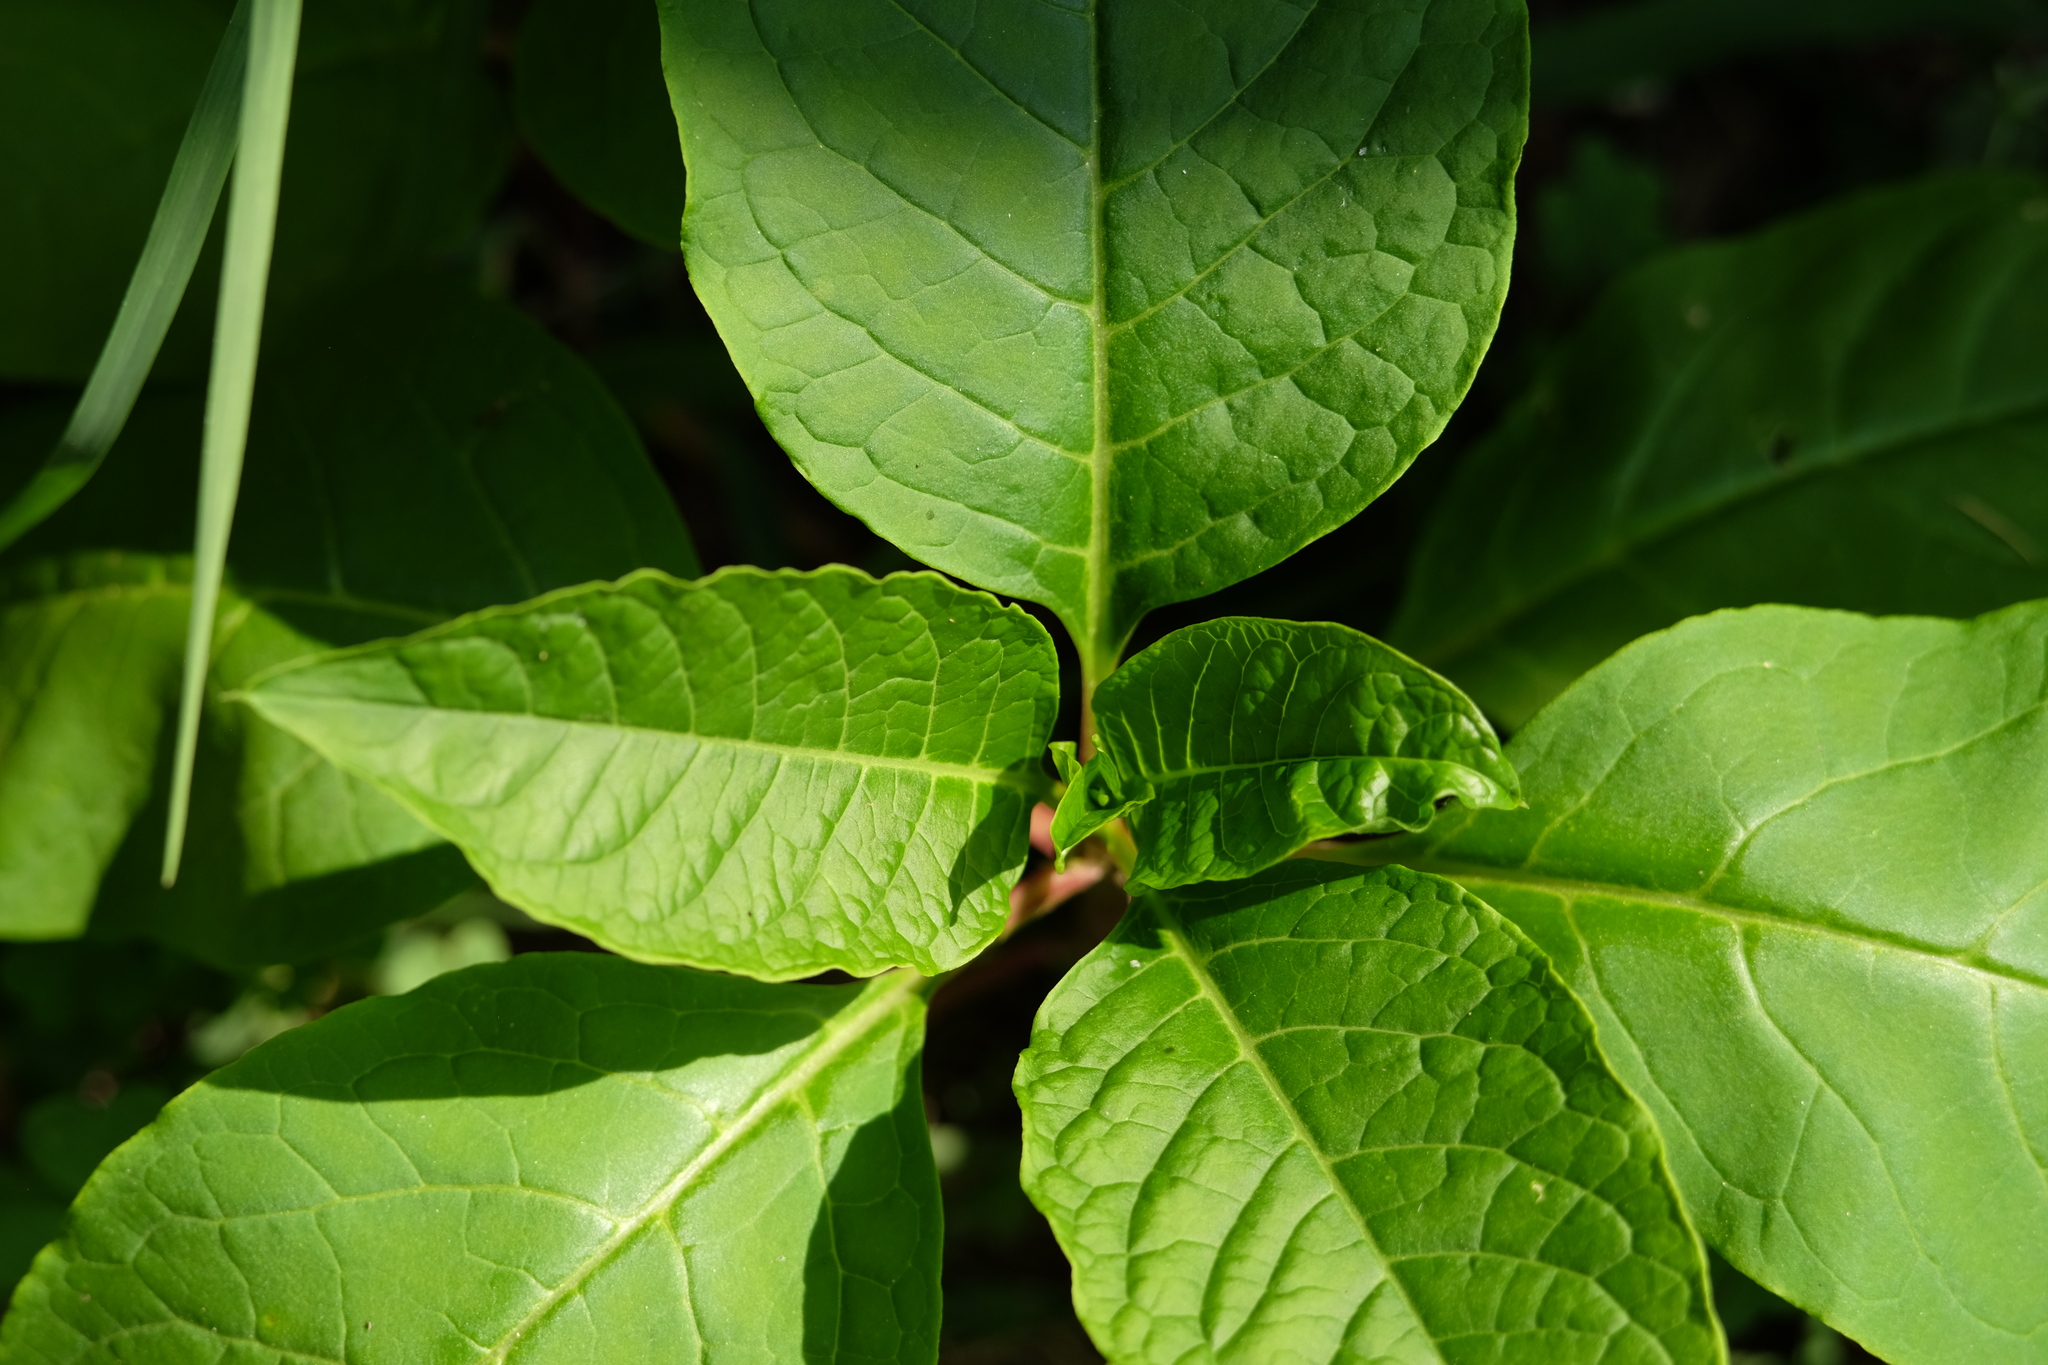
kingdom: Plantae
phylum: Tracheophyta
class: Magnoliopsida
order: Caryophyllales
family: Phytolaccaceae
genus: Phytolacca
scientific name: Phytolacca americana
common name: American pokeweed
